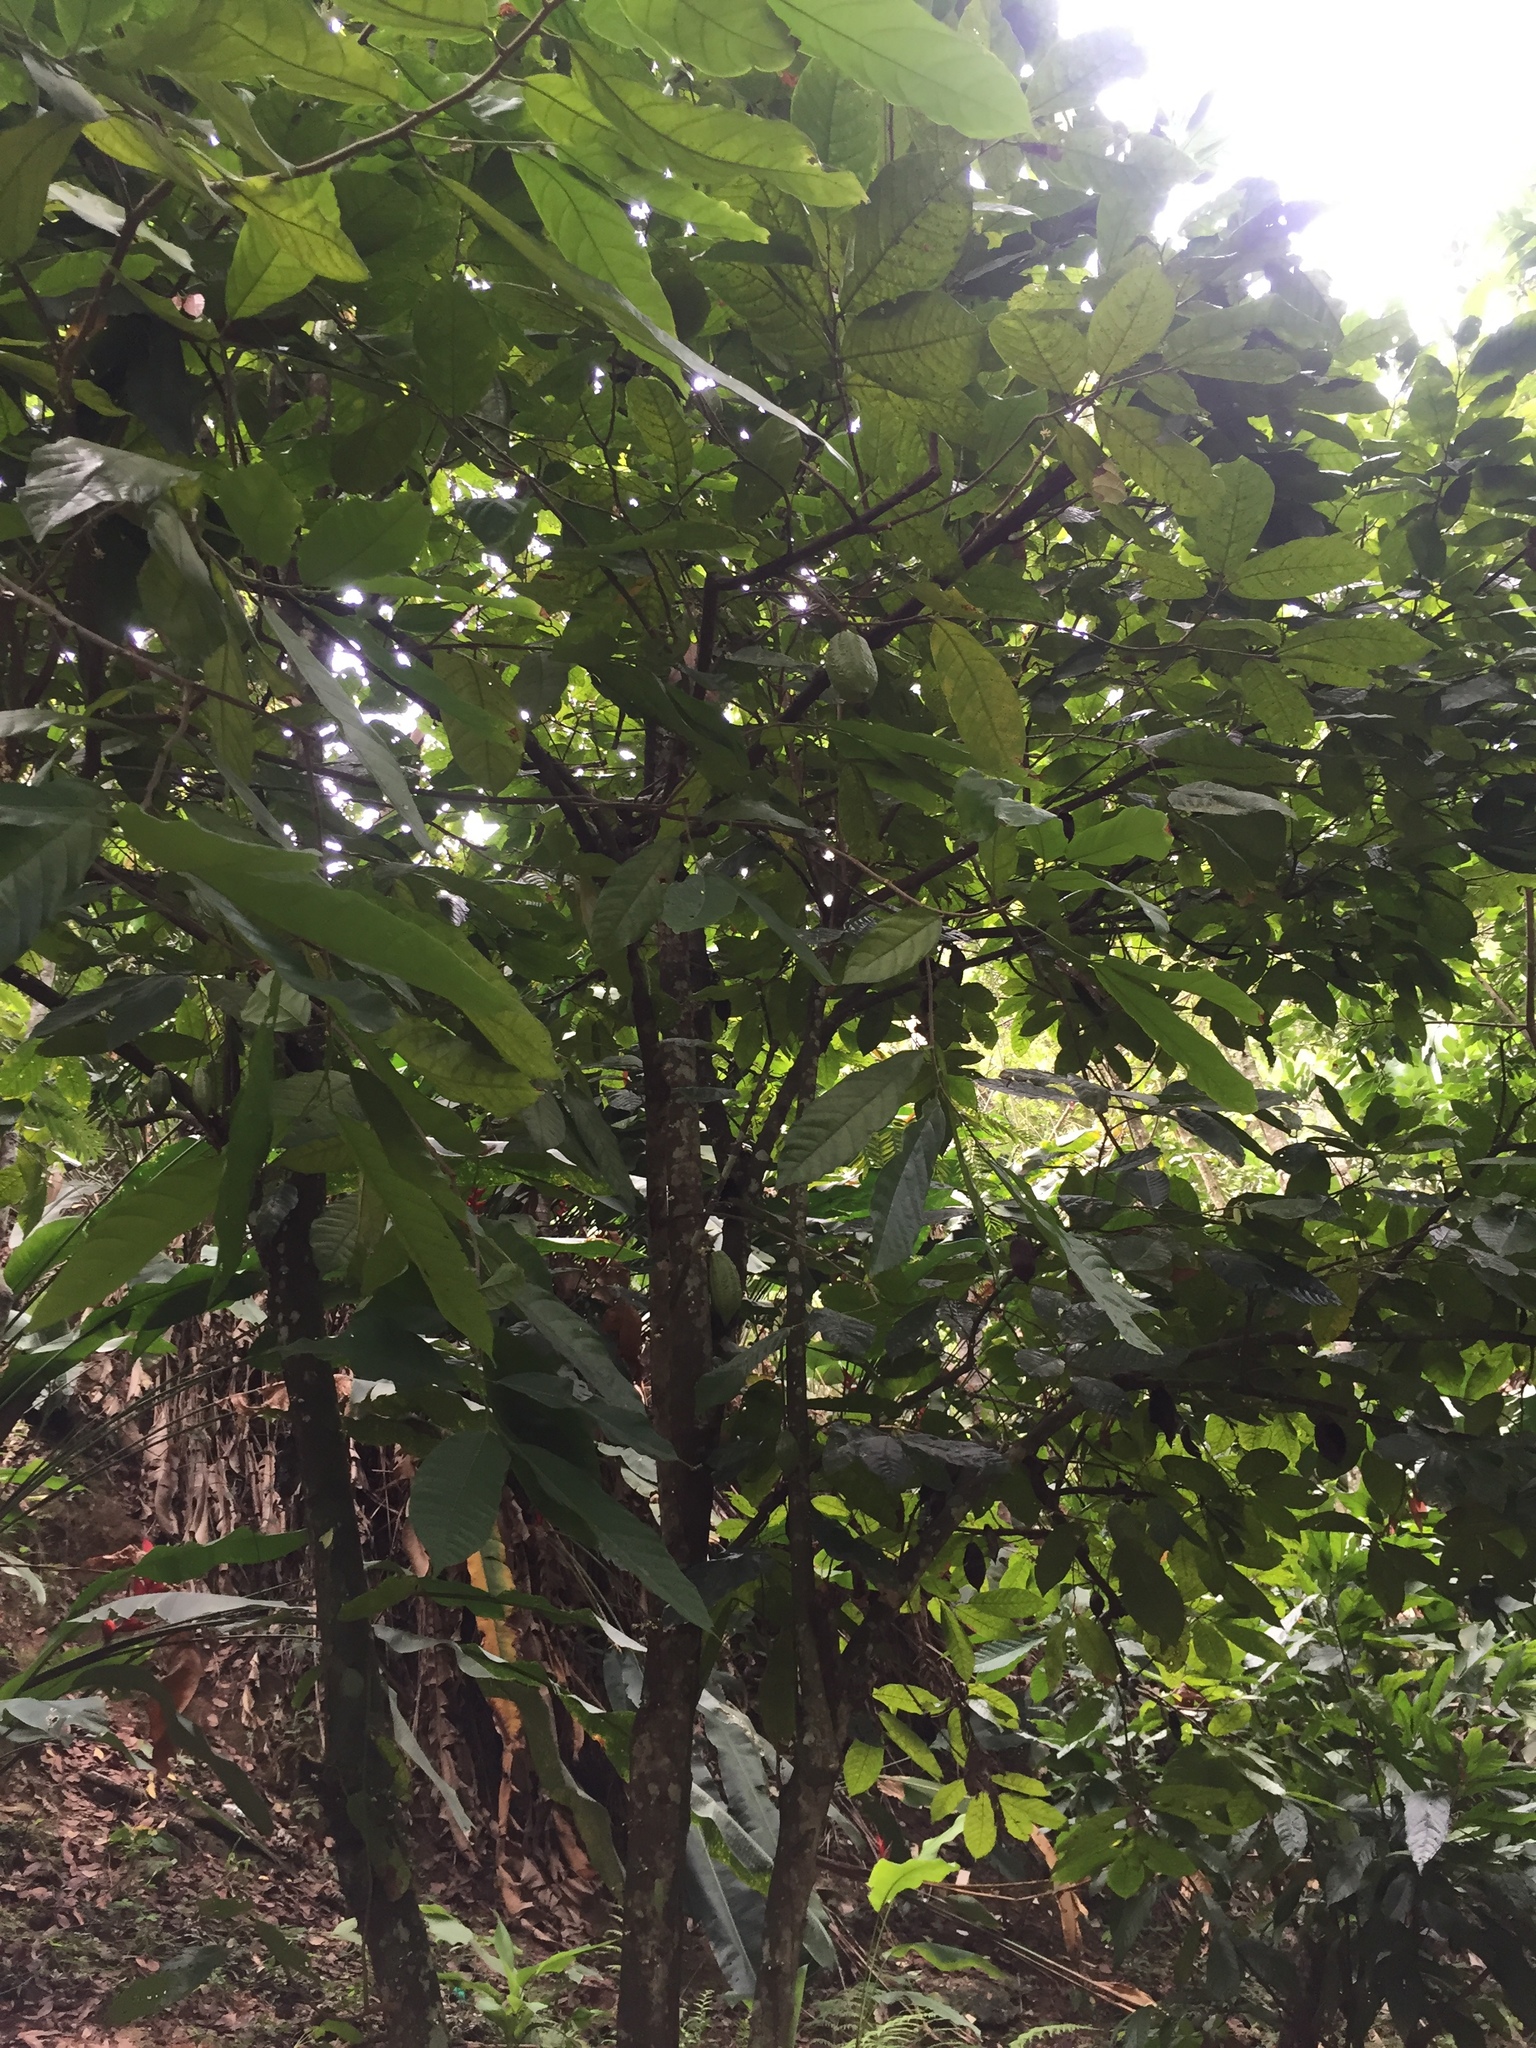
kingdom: Plantae
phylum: Tracheophyta
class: Magnoliopsida
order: Malvales
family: Malvaceae
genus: Theobroma
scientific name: Theobroma cacao
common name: Cocoa
